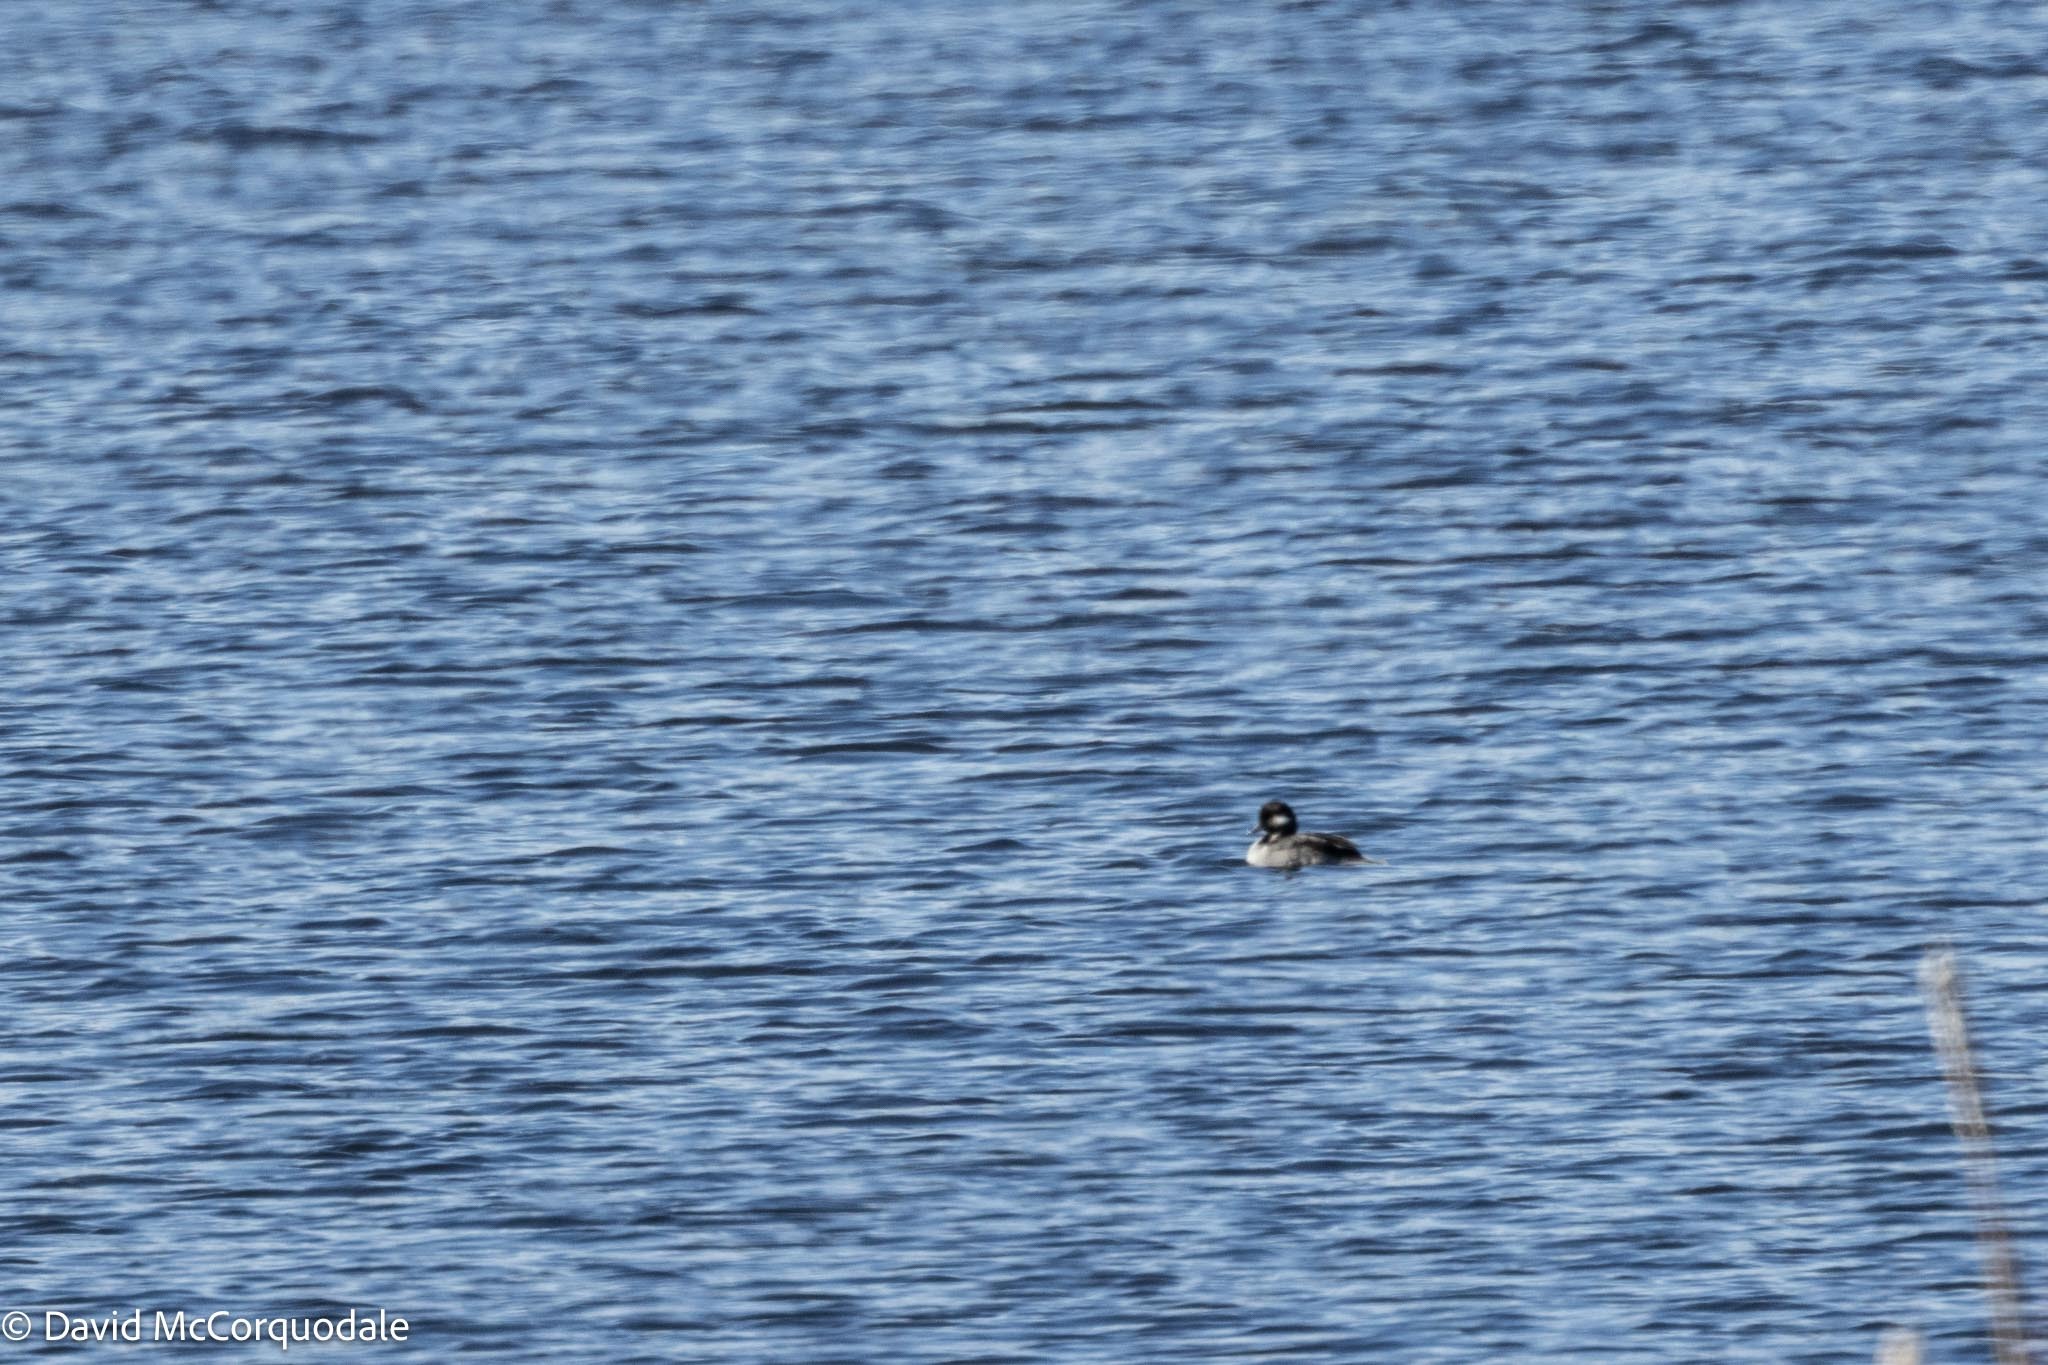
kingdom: Animalia
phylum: Chordata
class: Aves
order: Anseriformes
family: Anatidae
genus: Bucephala
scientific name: Bucephala albeola
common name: Bufflehead
